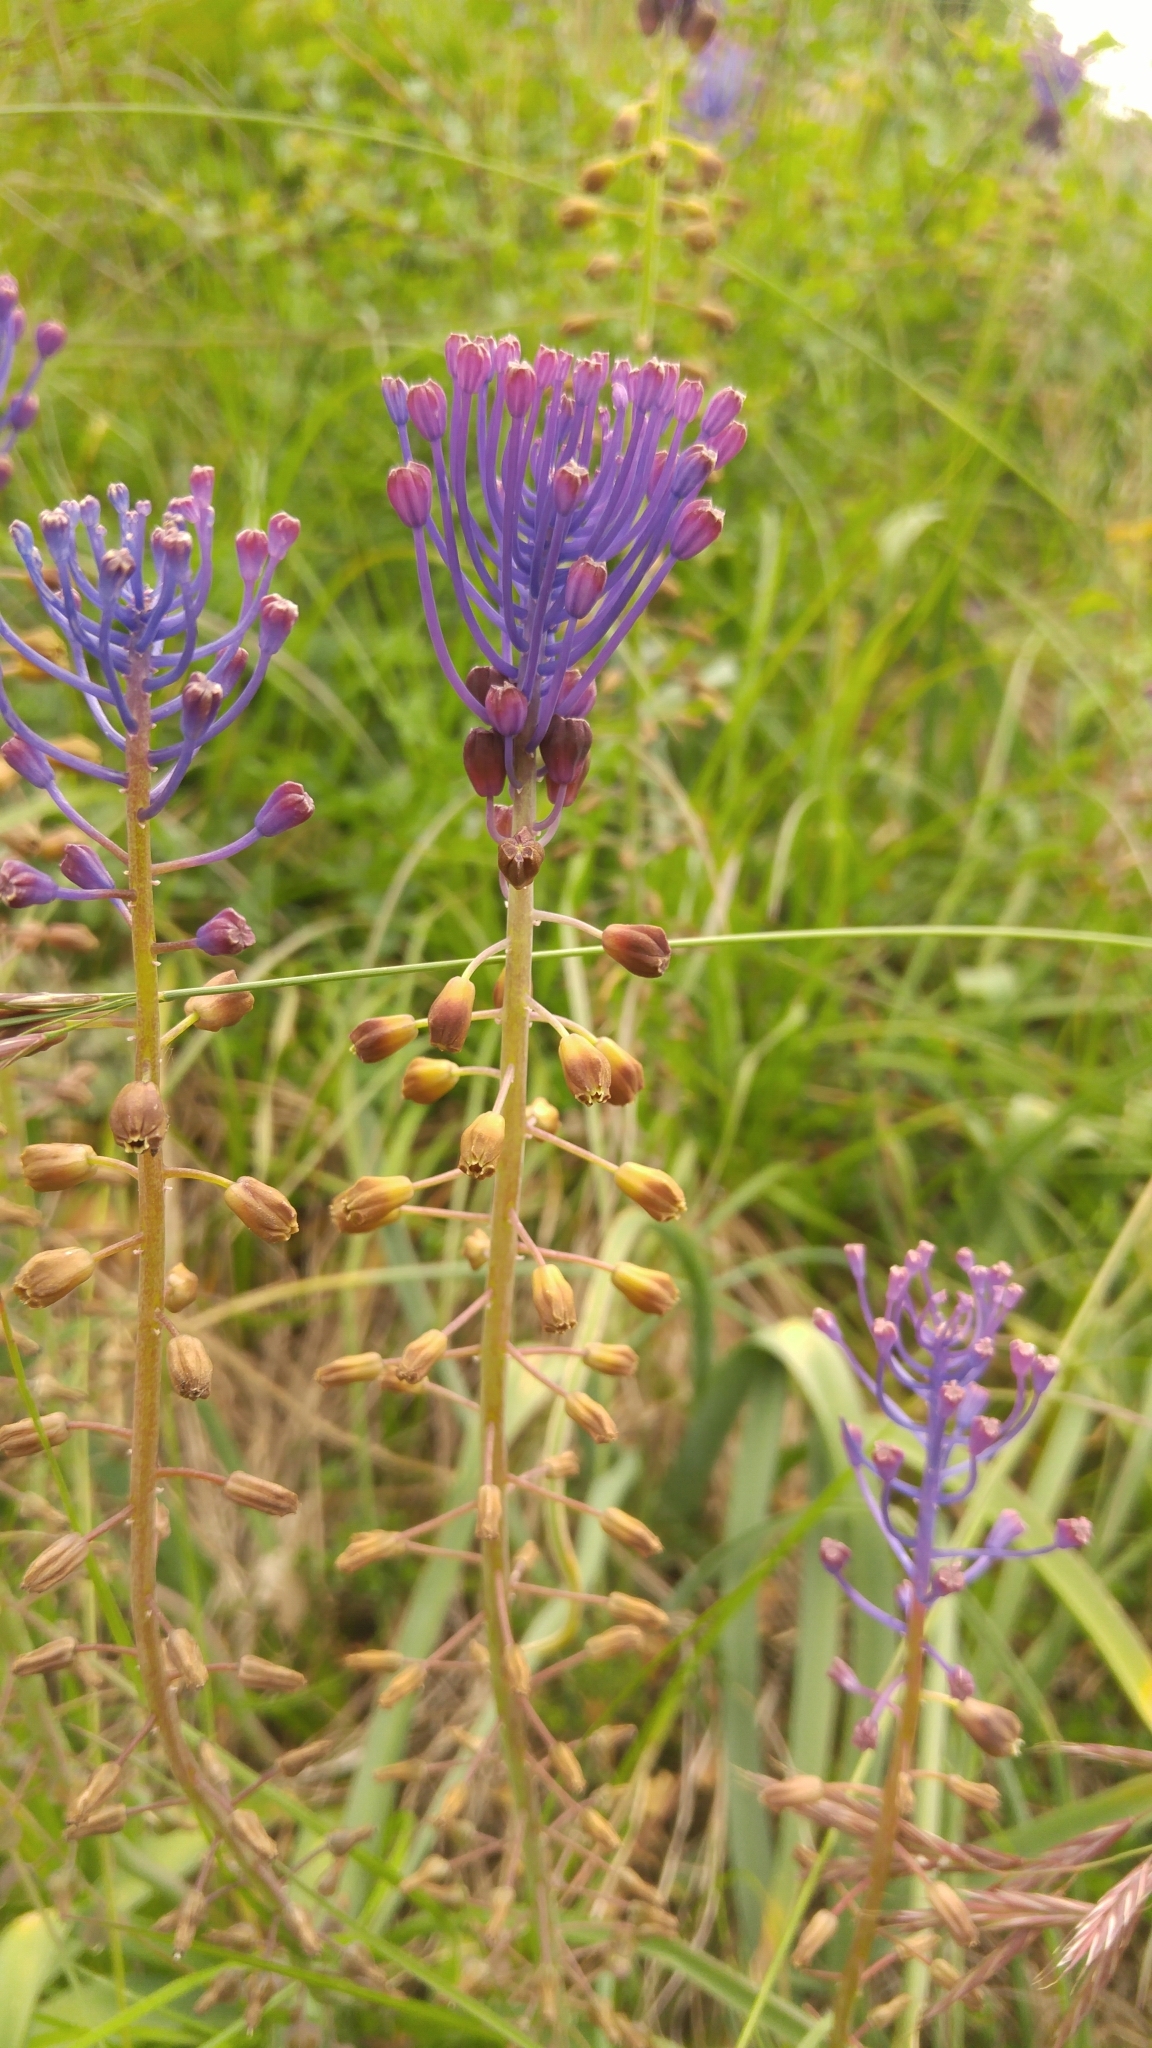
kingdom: Plantae
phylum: Tracheophyta
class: Liliopsida
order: Asparagales
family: Asparagaceae
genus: Muscari
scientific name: Muscari comosum
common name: Tassel hyacinth
